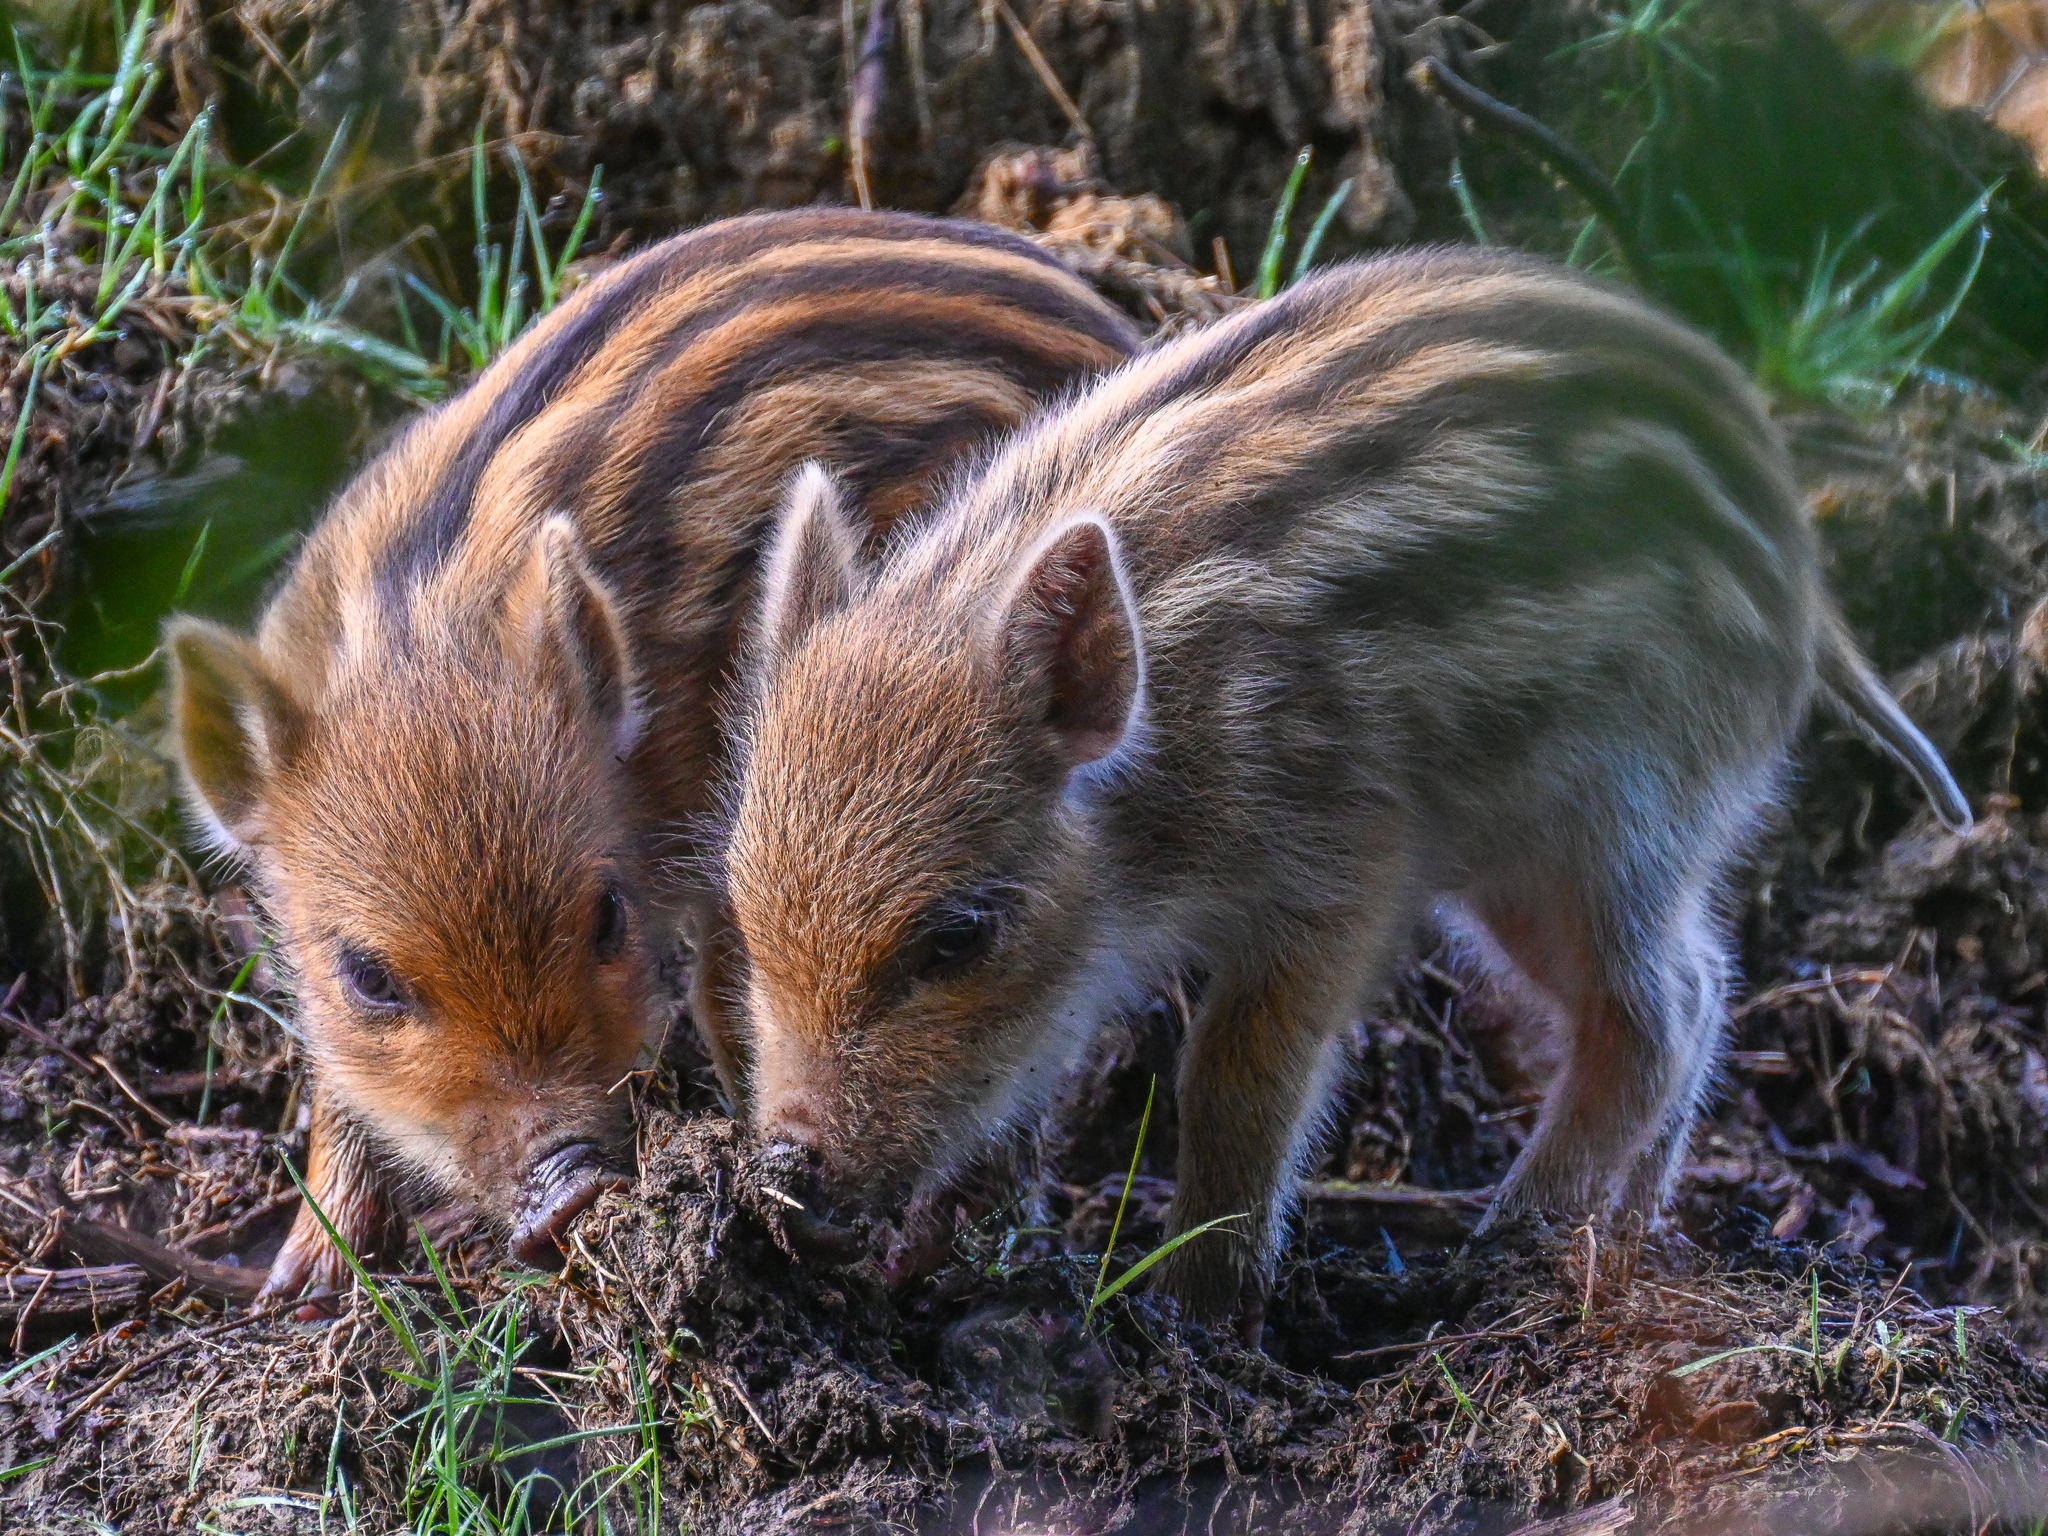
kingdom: Animalia
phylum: Chordata
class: Mammalia
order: Artiodactyla
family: Suidae
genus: Sus
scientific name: Sus scrofa
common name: Wild boar
